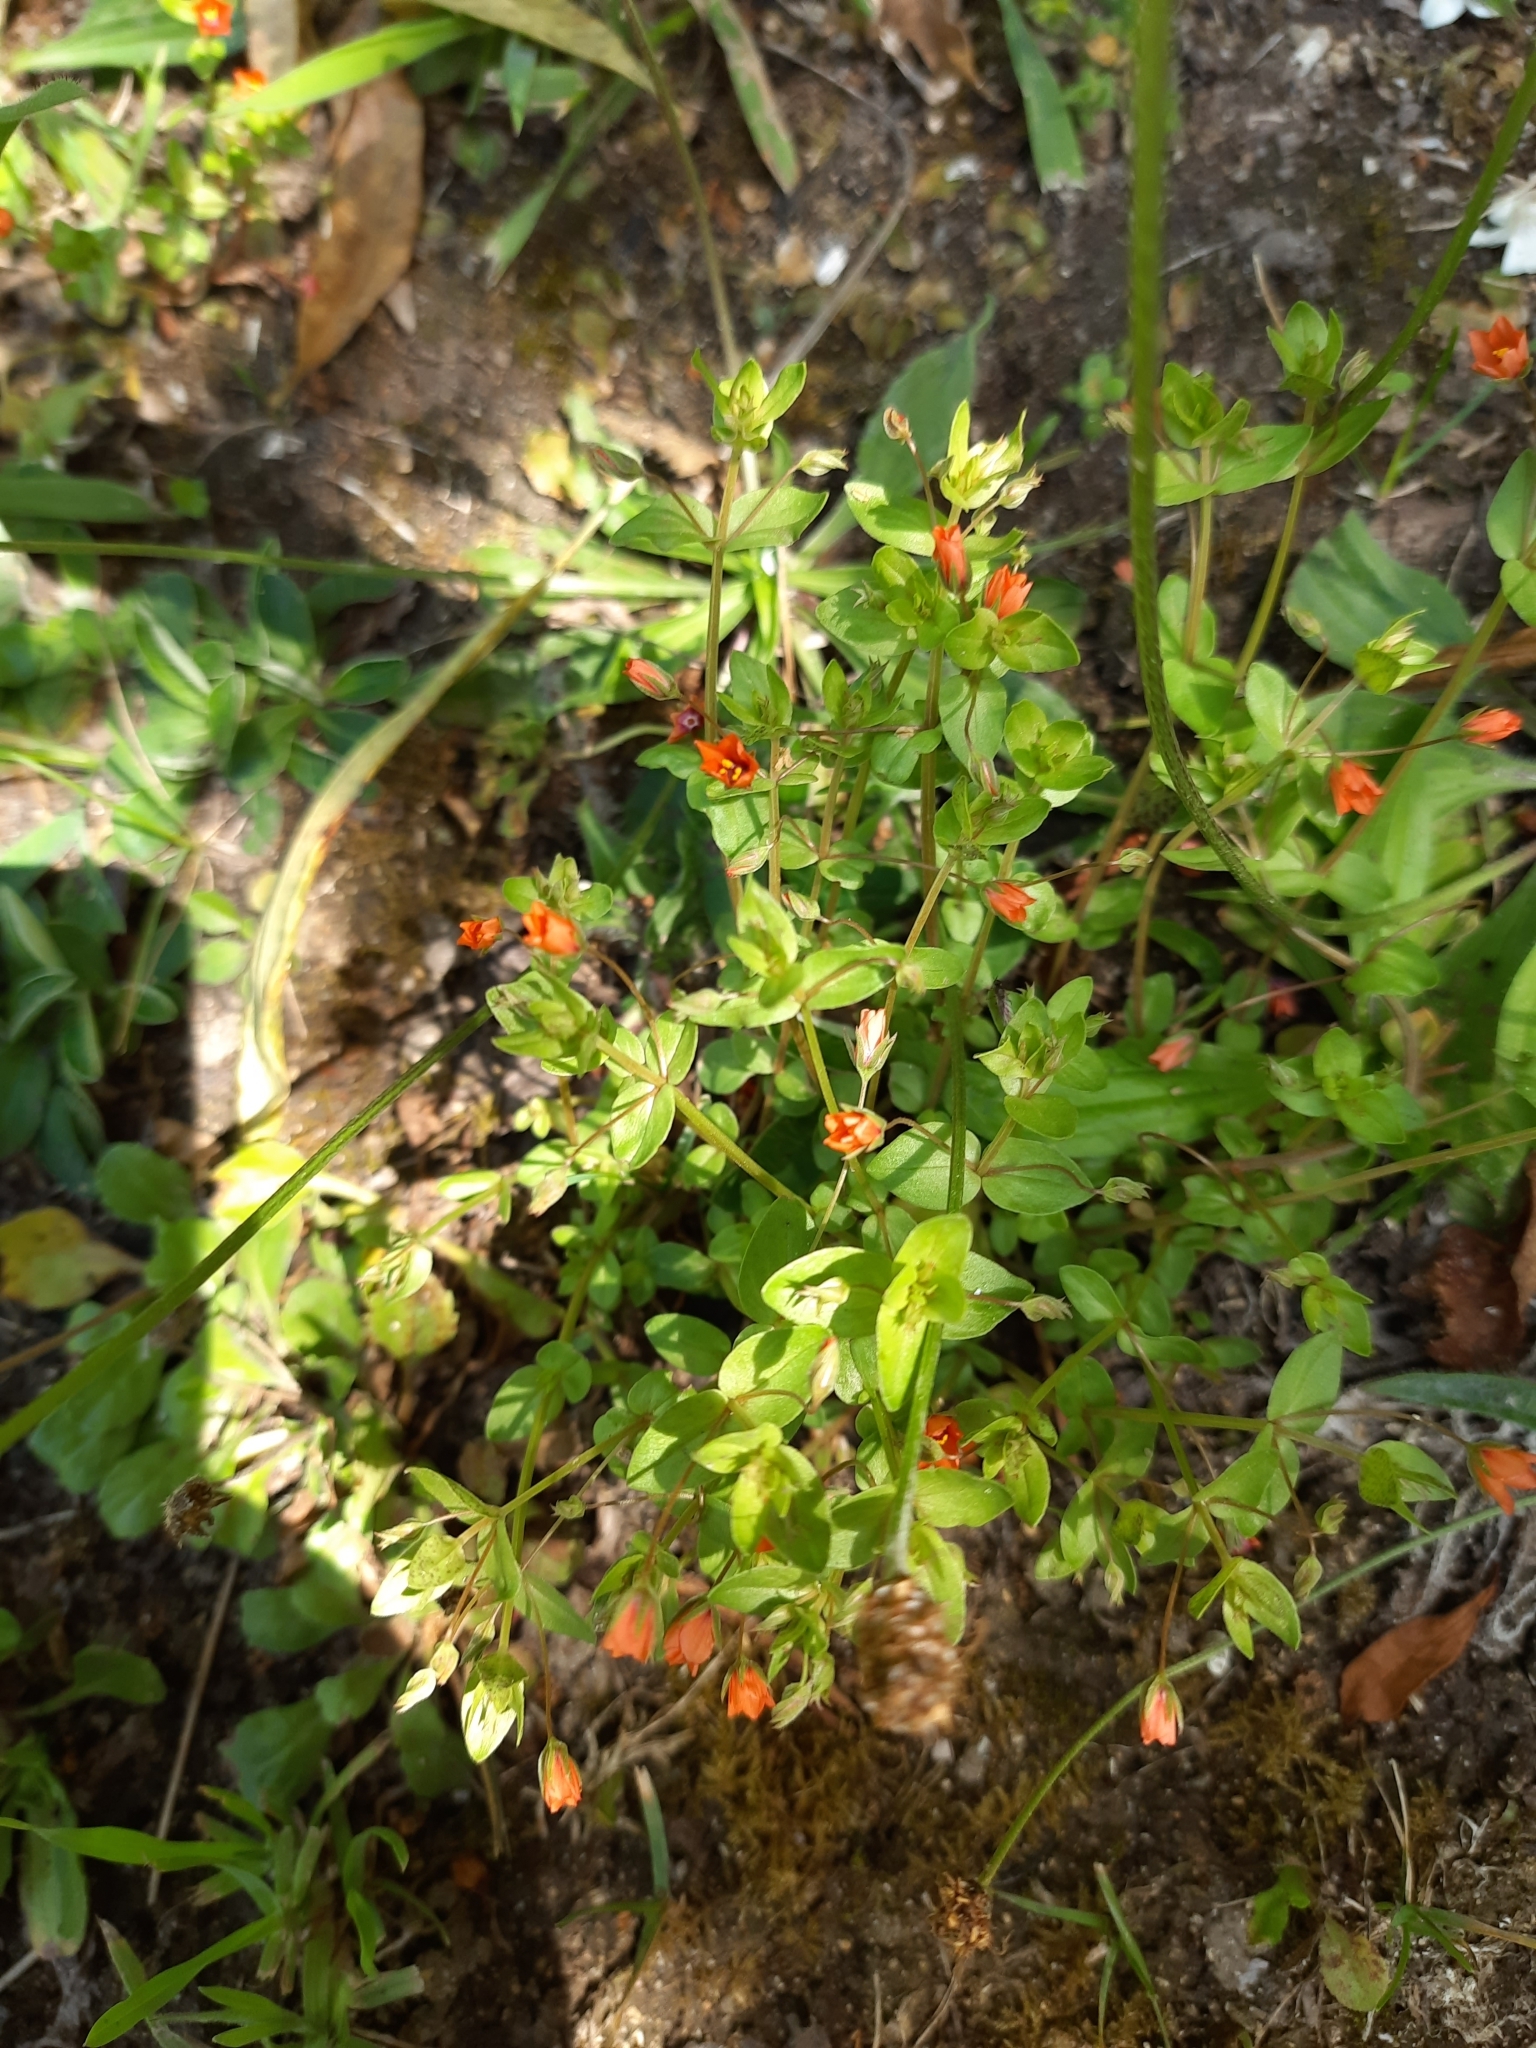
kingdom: Plantae
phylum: Tracheophyta
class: Magnoliopsida
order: Ericales
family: Primulaceae
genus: Lysimachia
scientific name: Lysimachia arvensis
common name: Scarlet pimpernel
